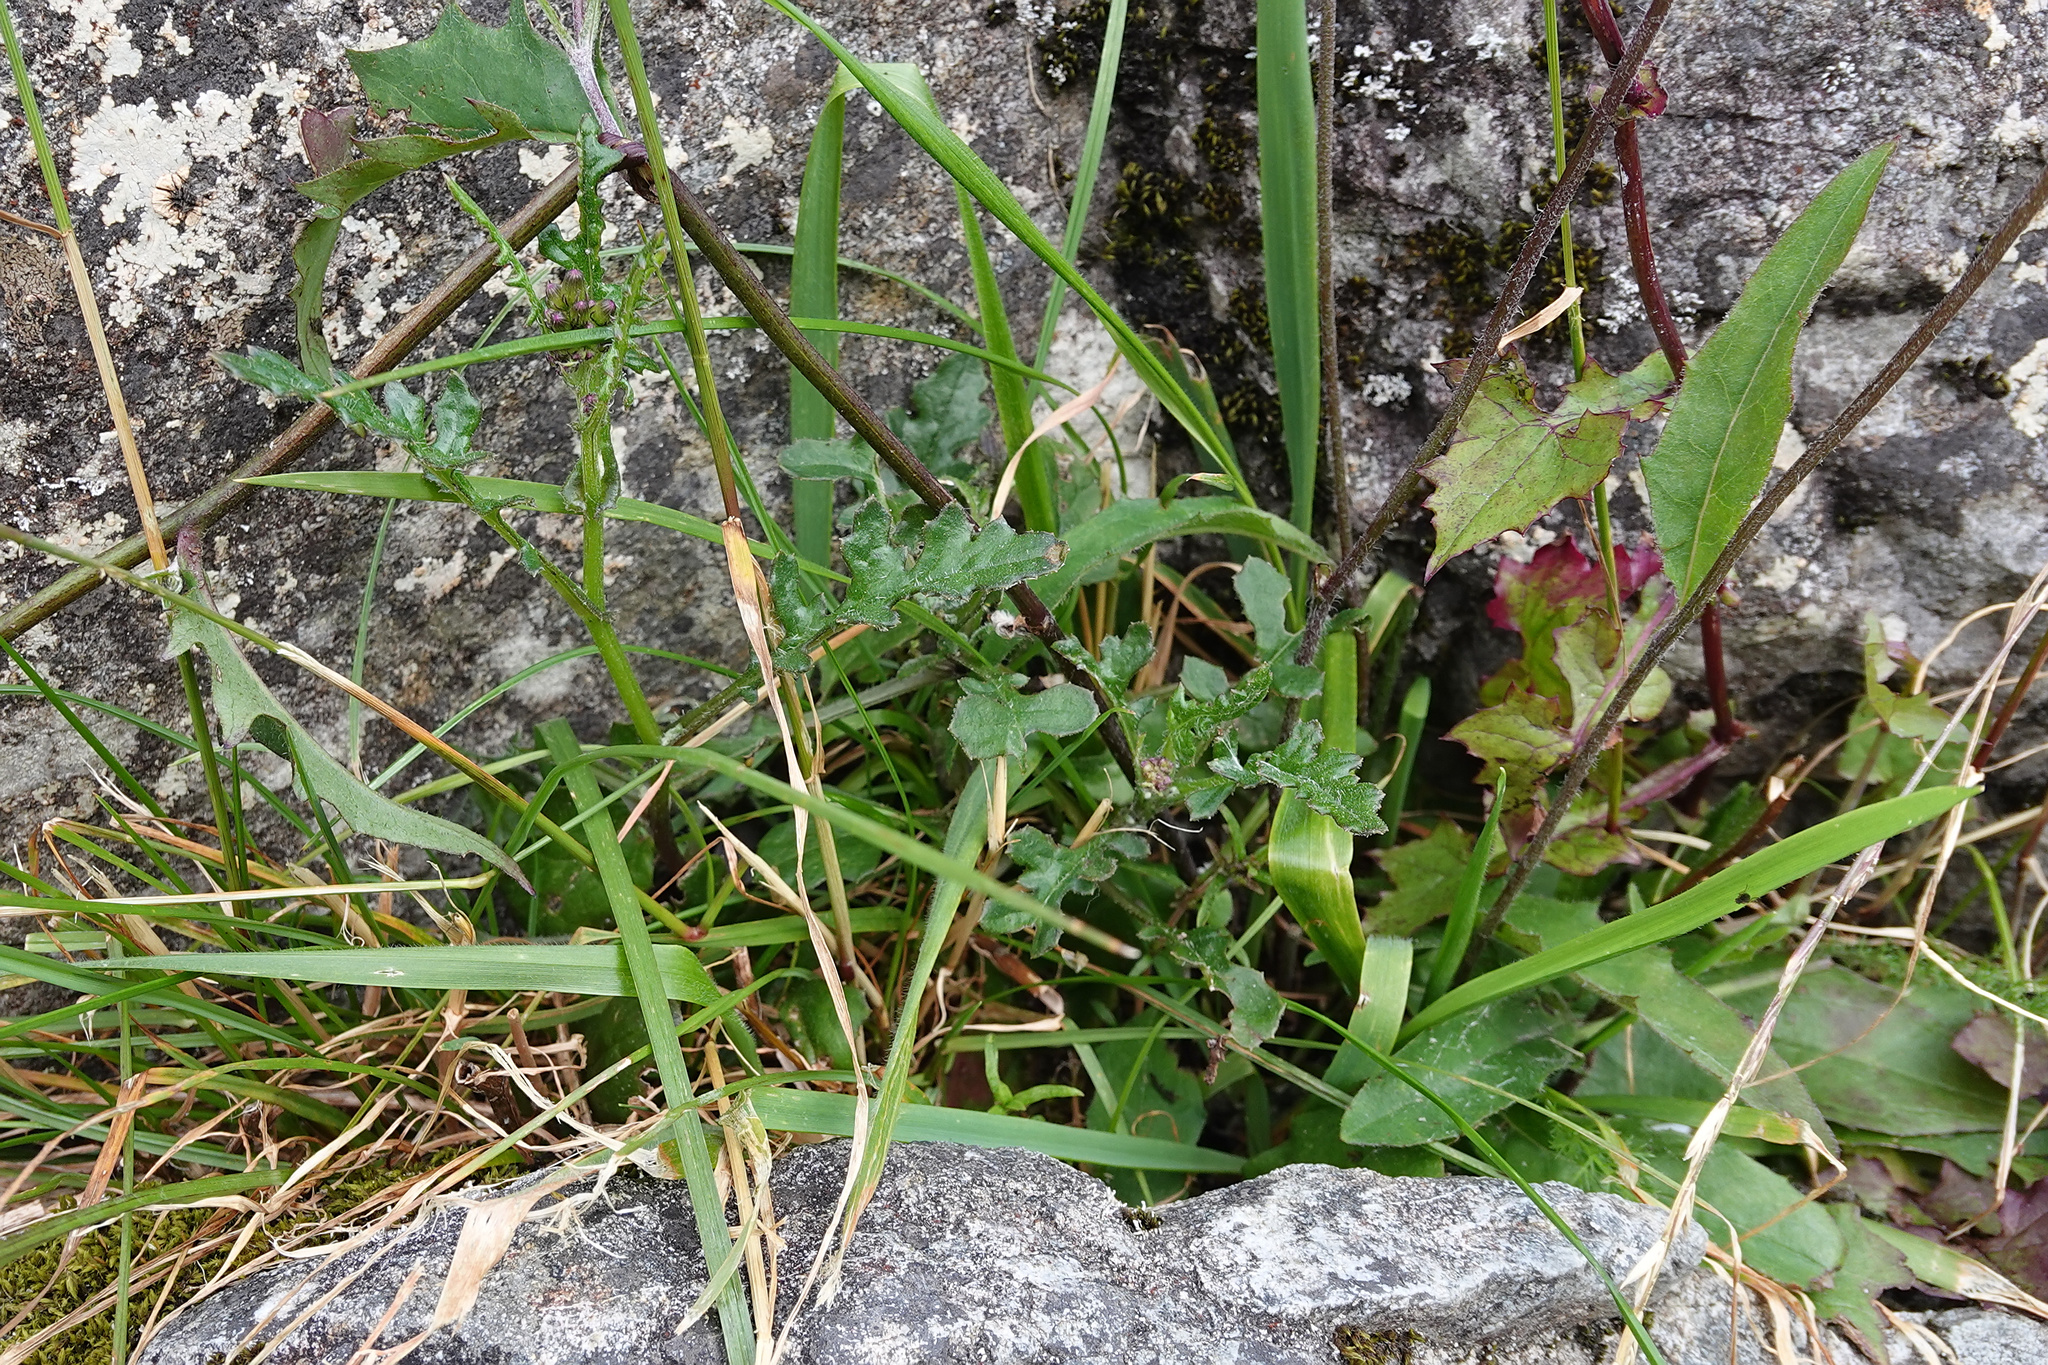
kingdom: Plantae
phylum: Tracheophyta
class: Magnoliopsida
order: Asterales
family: Asteraceae
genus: Senecio
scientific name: Senecio wairauensis
